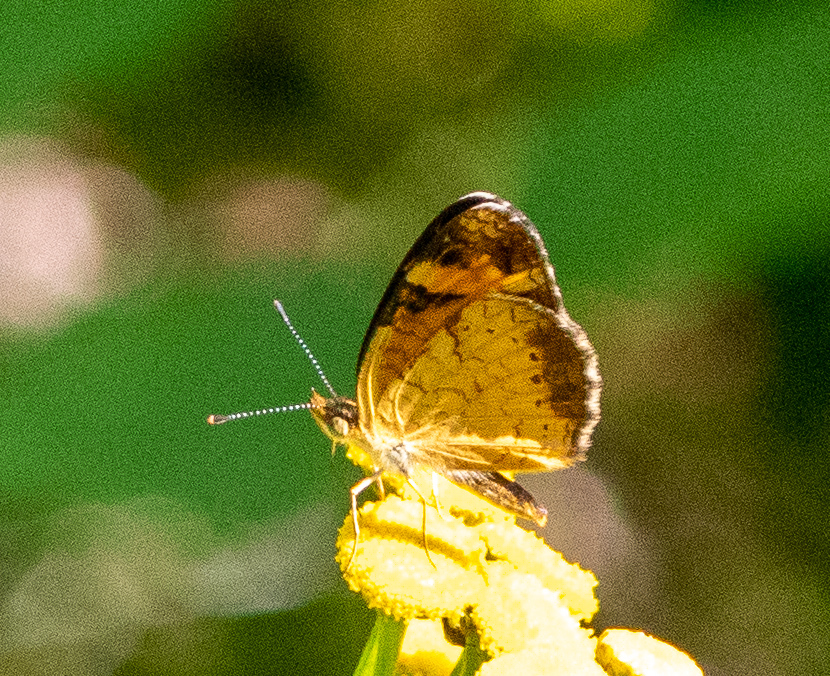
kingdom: Animalia
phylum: Arthropoda
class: Insecta
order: Lepidoptera
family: Nymphalidae
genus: Phyciodes
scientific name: Phyciodes tharos
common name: Pearl crescent
